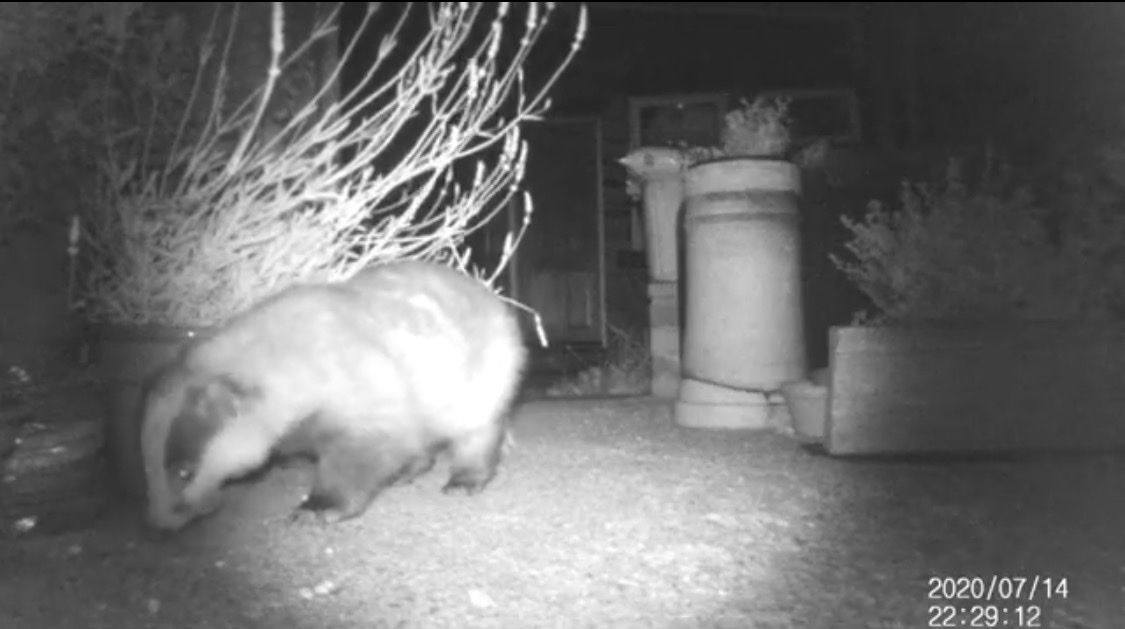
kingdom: Animalia
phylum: Chordata
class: Mammalia
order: Carnivora
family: Mustelidae
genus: Meles
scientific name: Meles meles
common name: Eurasian badger
